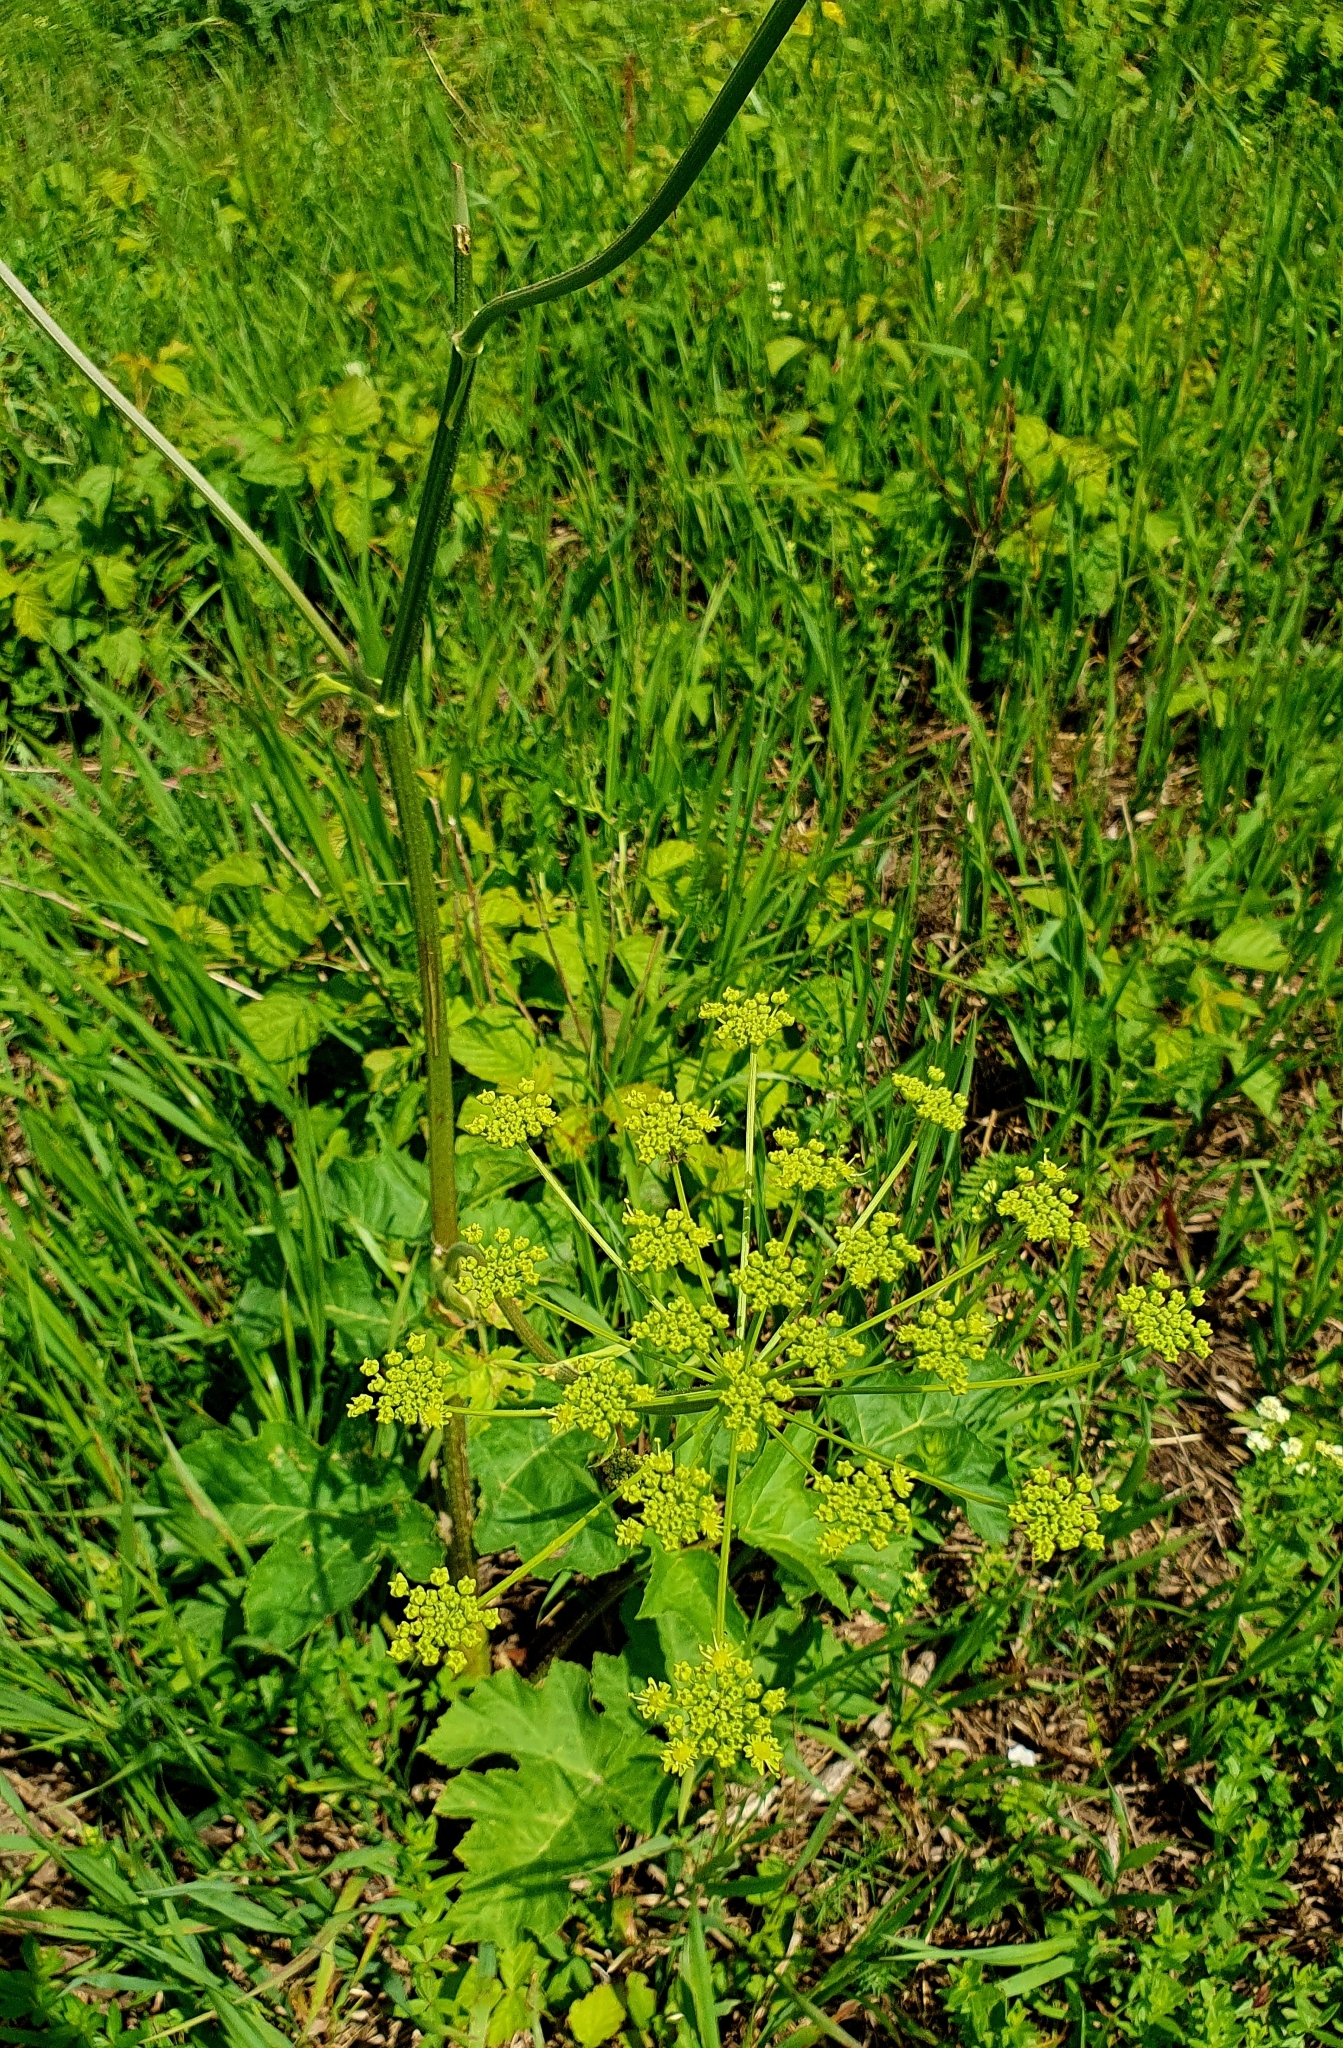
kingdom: Plantae
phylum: Tracheophyta
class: Magnoliopsida
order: Apiales
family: Apiaceae
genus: Heracleum
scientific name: Heracleum sphondylium
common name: Hogweed
